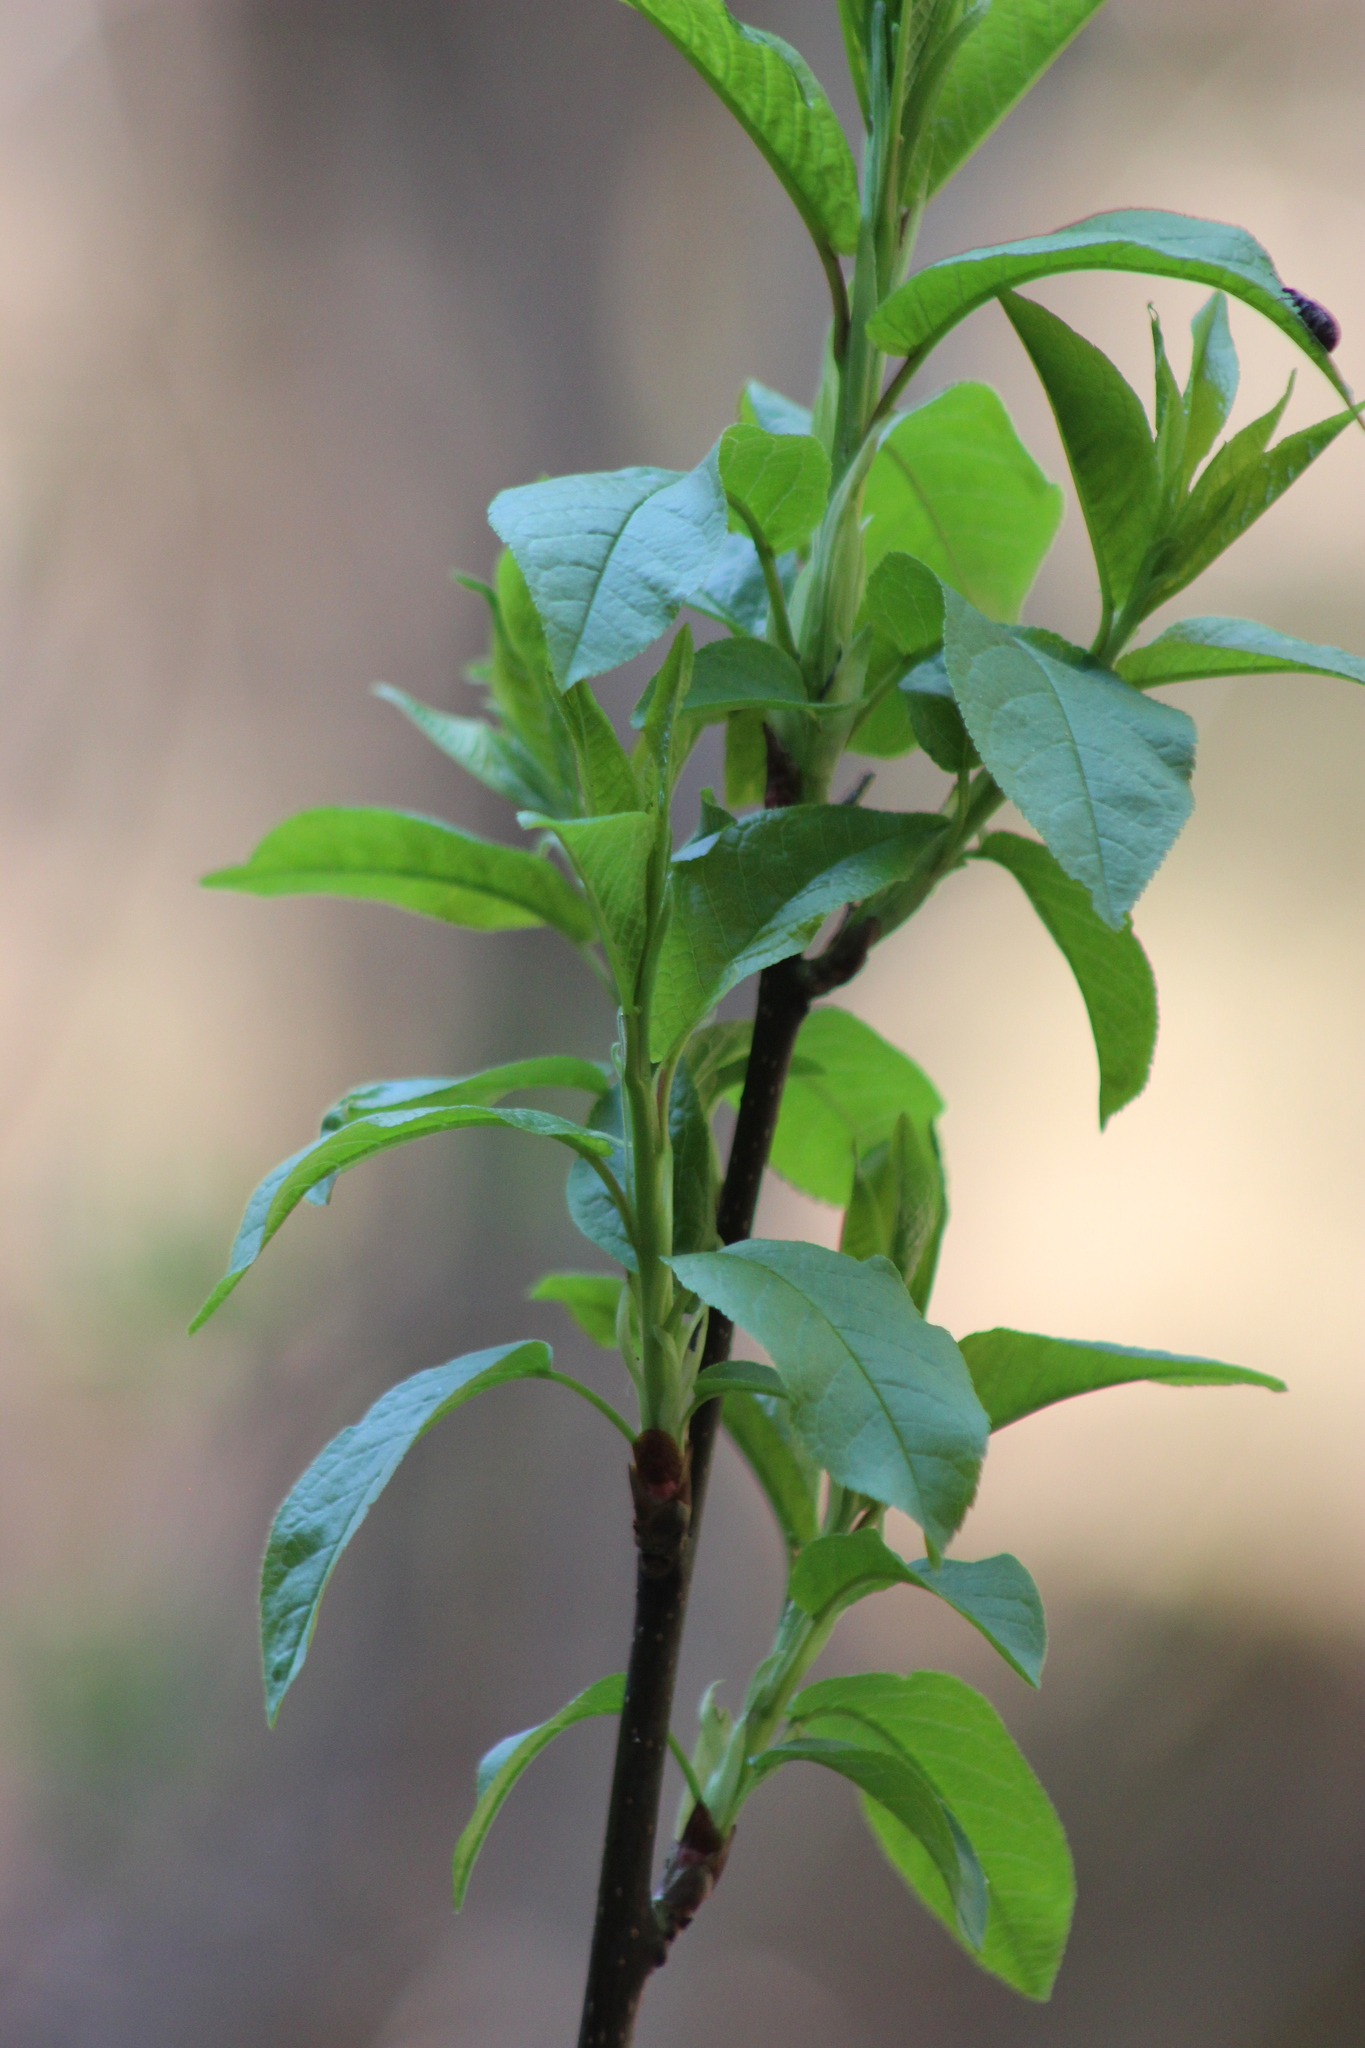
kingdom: Plantae
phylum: Tracheophyta
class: Magnoliopsida
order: Rosales
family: Rosaceae
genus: Prunus
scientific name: Prunus padus
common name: Bird cherry
